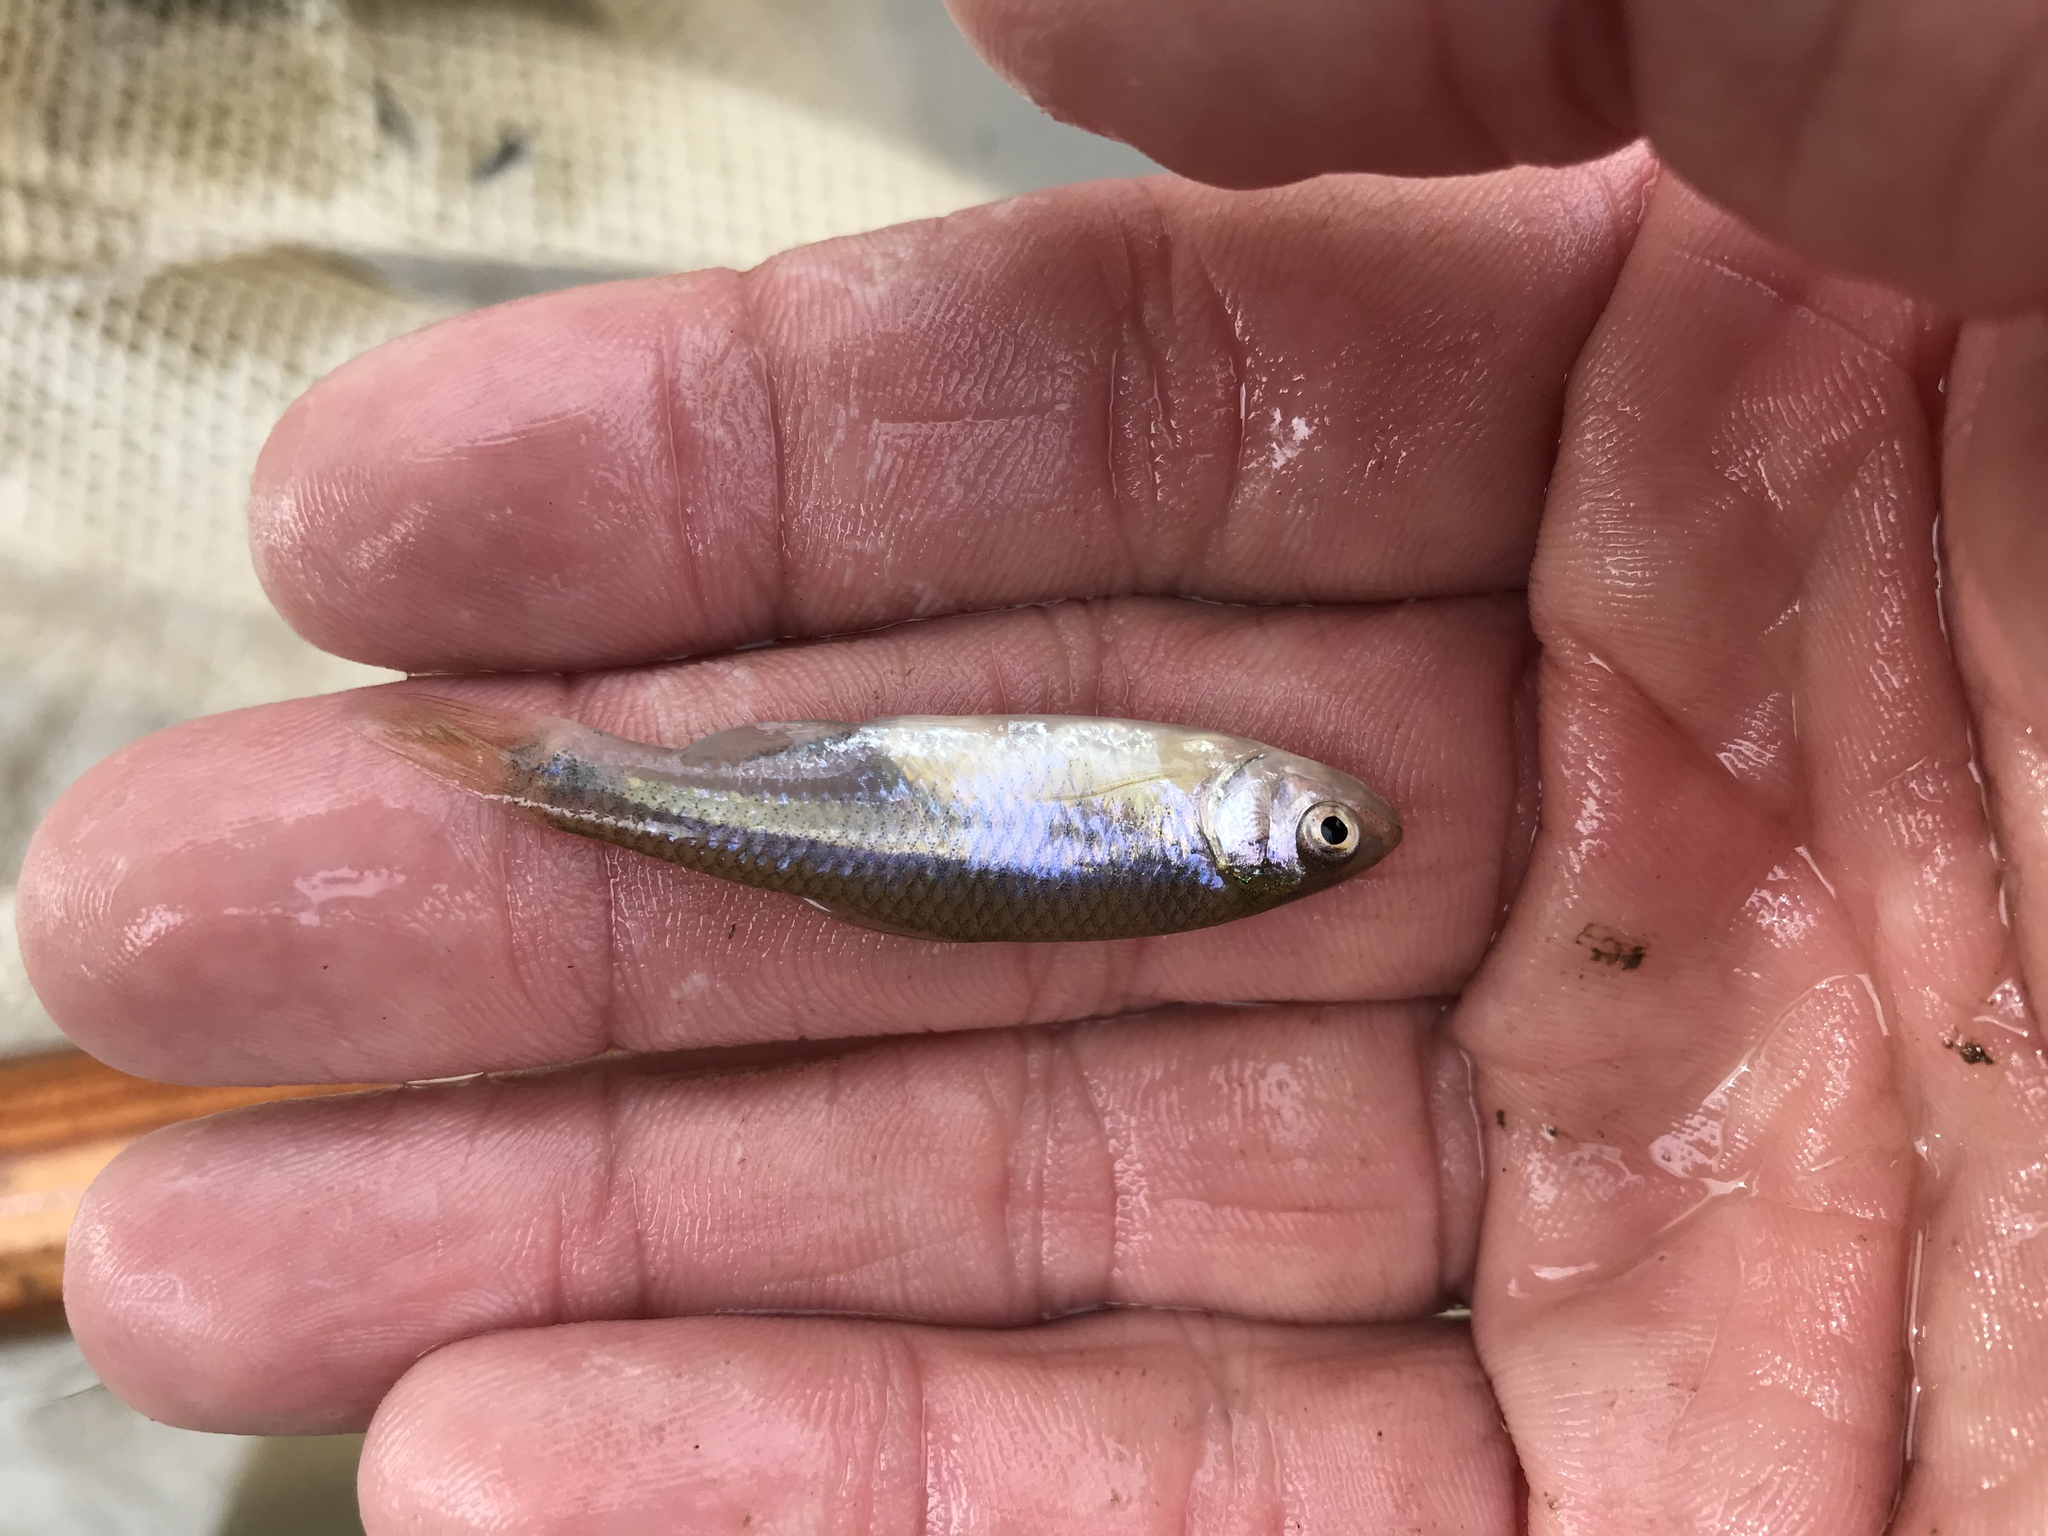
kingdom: Animalia
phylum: Chordata
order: Cypriniformes
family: Cyprinidae
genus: Cyprinella
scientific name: Cyprinella lutrensis
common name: Red shiner
